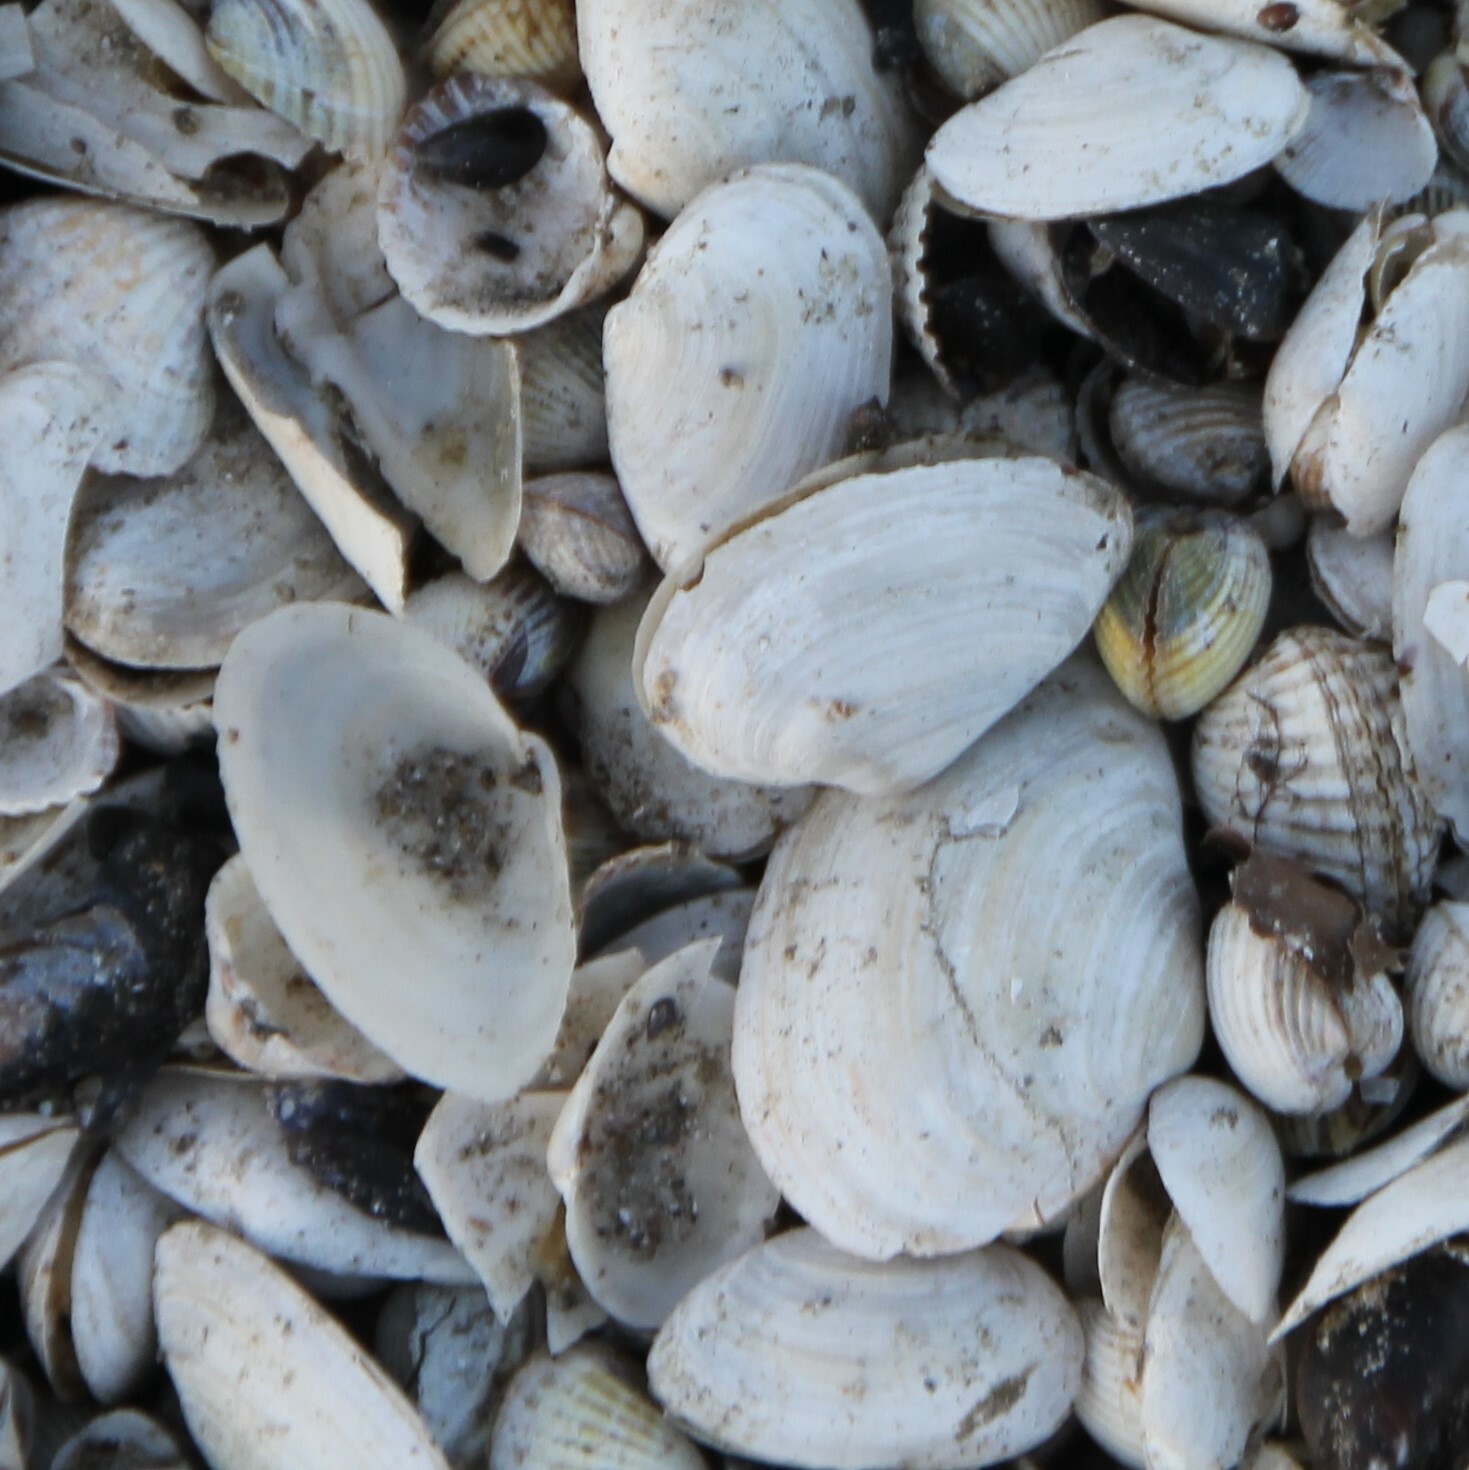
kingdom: Animalia
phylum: Mollusca
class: Bivalvia
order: Myida
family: Myidae
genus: Mya
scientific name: Mya arenaria
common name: Soft-shelled clam
